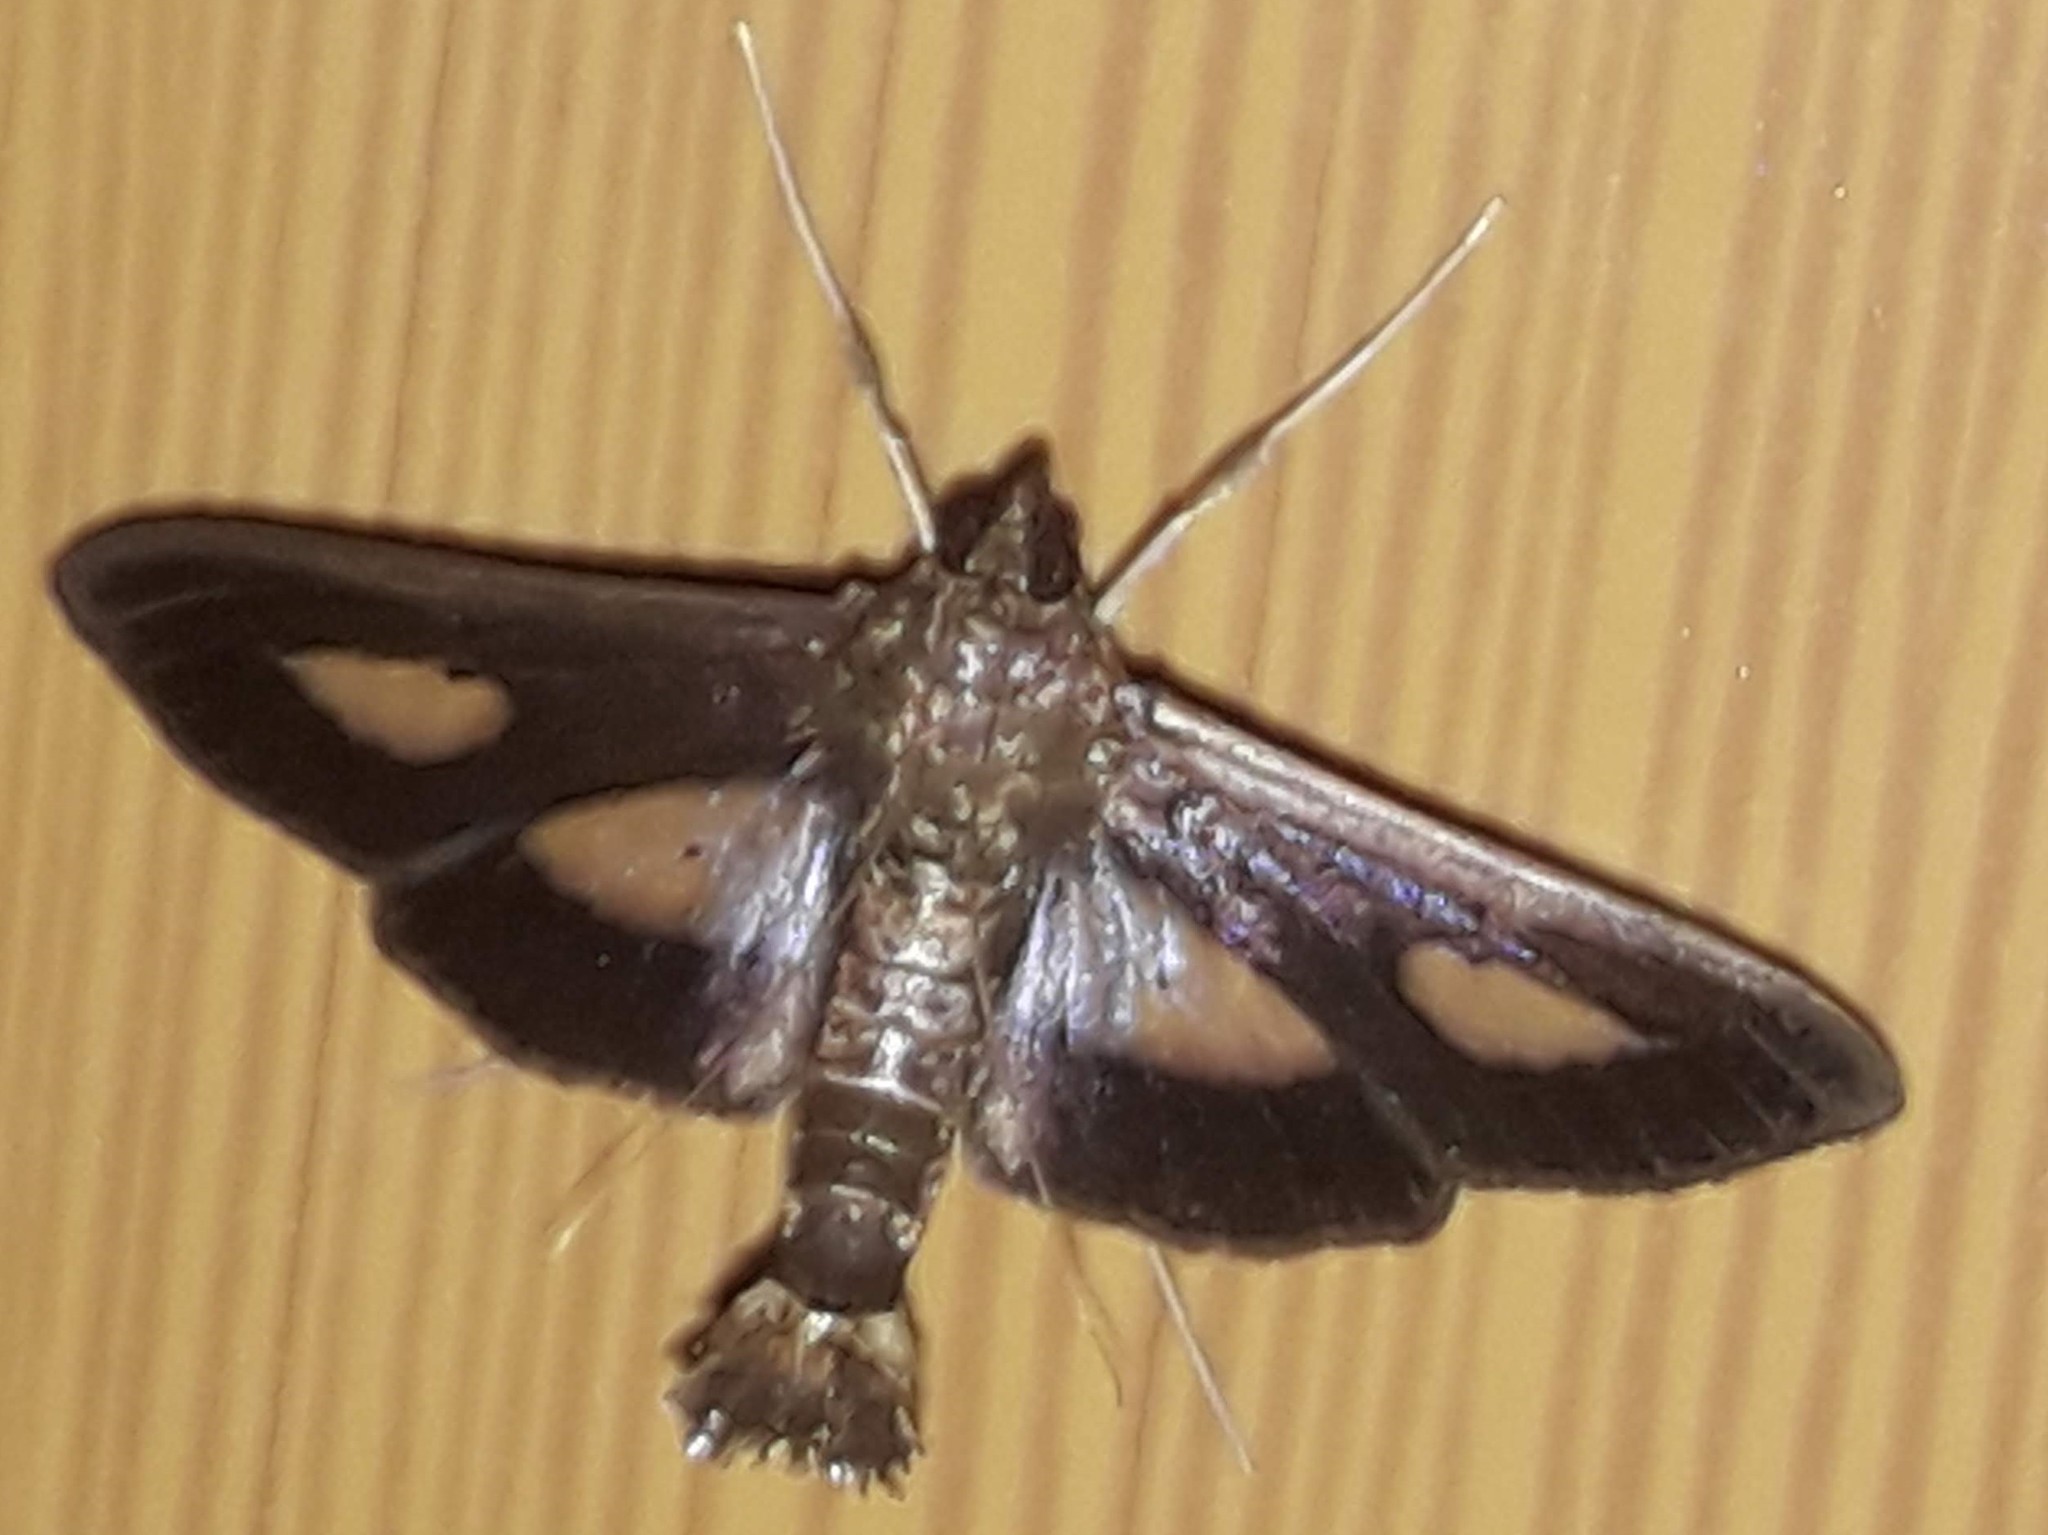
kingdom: Animalia
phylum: Arthropoda
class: Insecta
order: Lepidoptera
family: Crambidae
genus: Diaphania
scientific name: Diaphania
